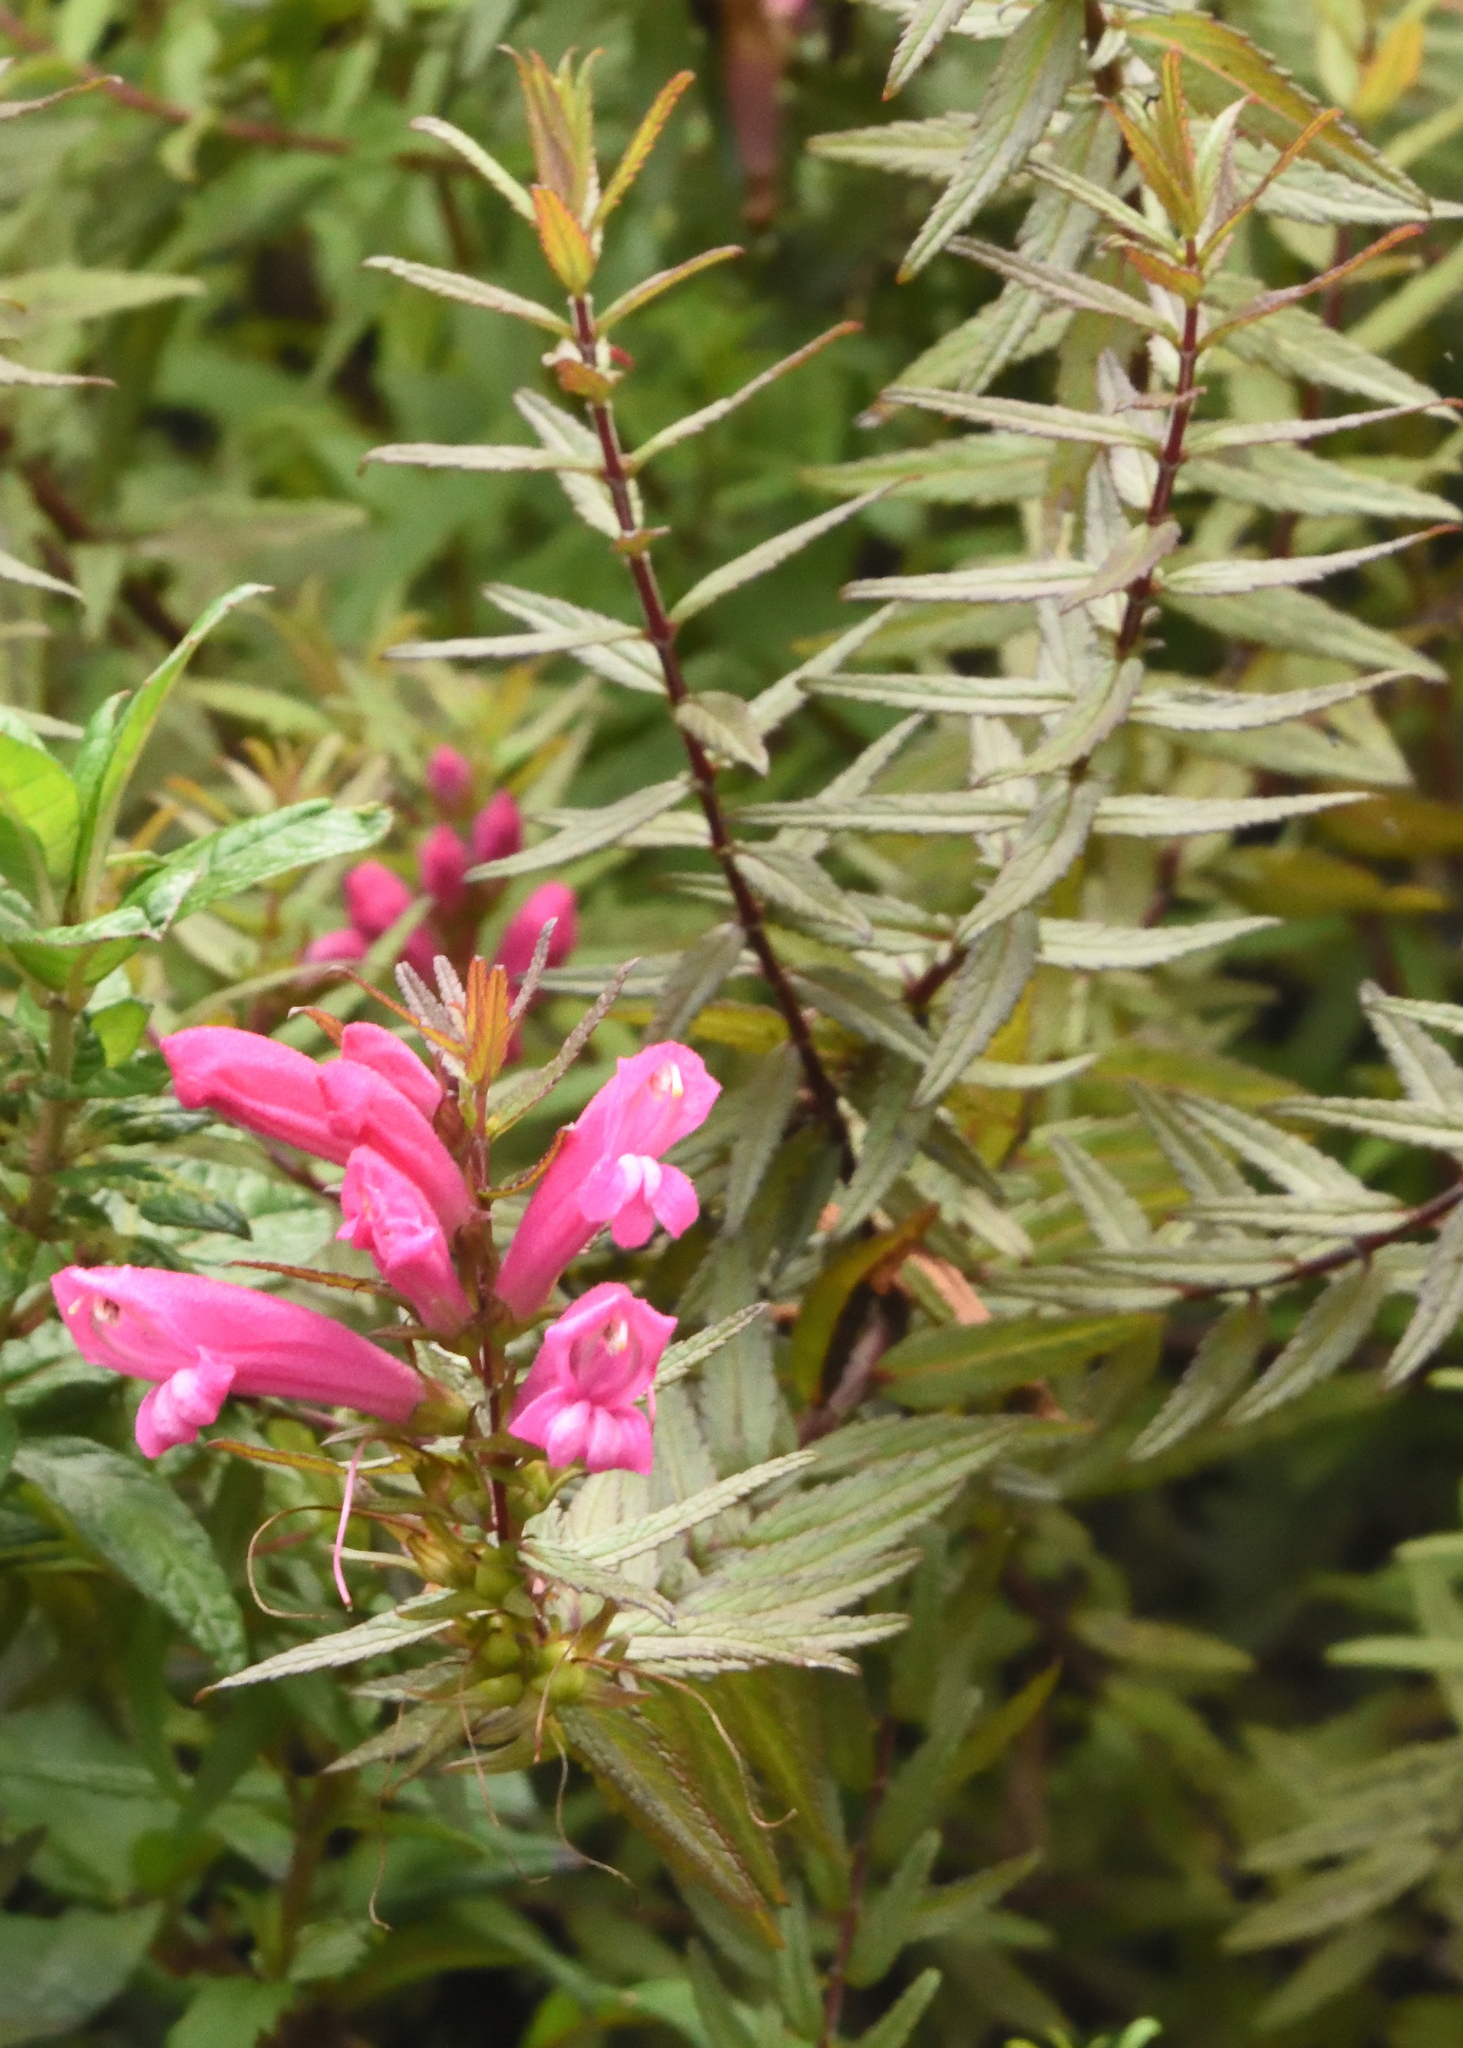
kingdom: Plantae
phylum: Tracheophyta
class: Magnoliopsida
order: Lamiales
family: Orobanchaceae
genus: Lamourouxia
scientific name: Lamourouxia virgata
